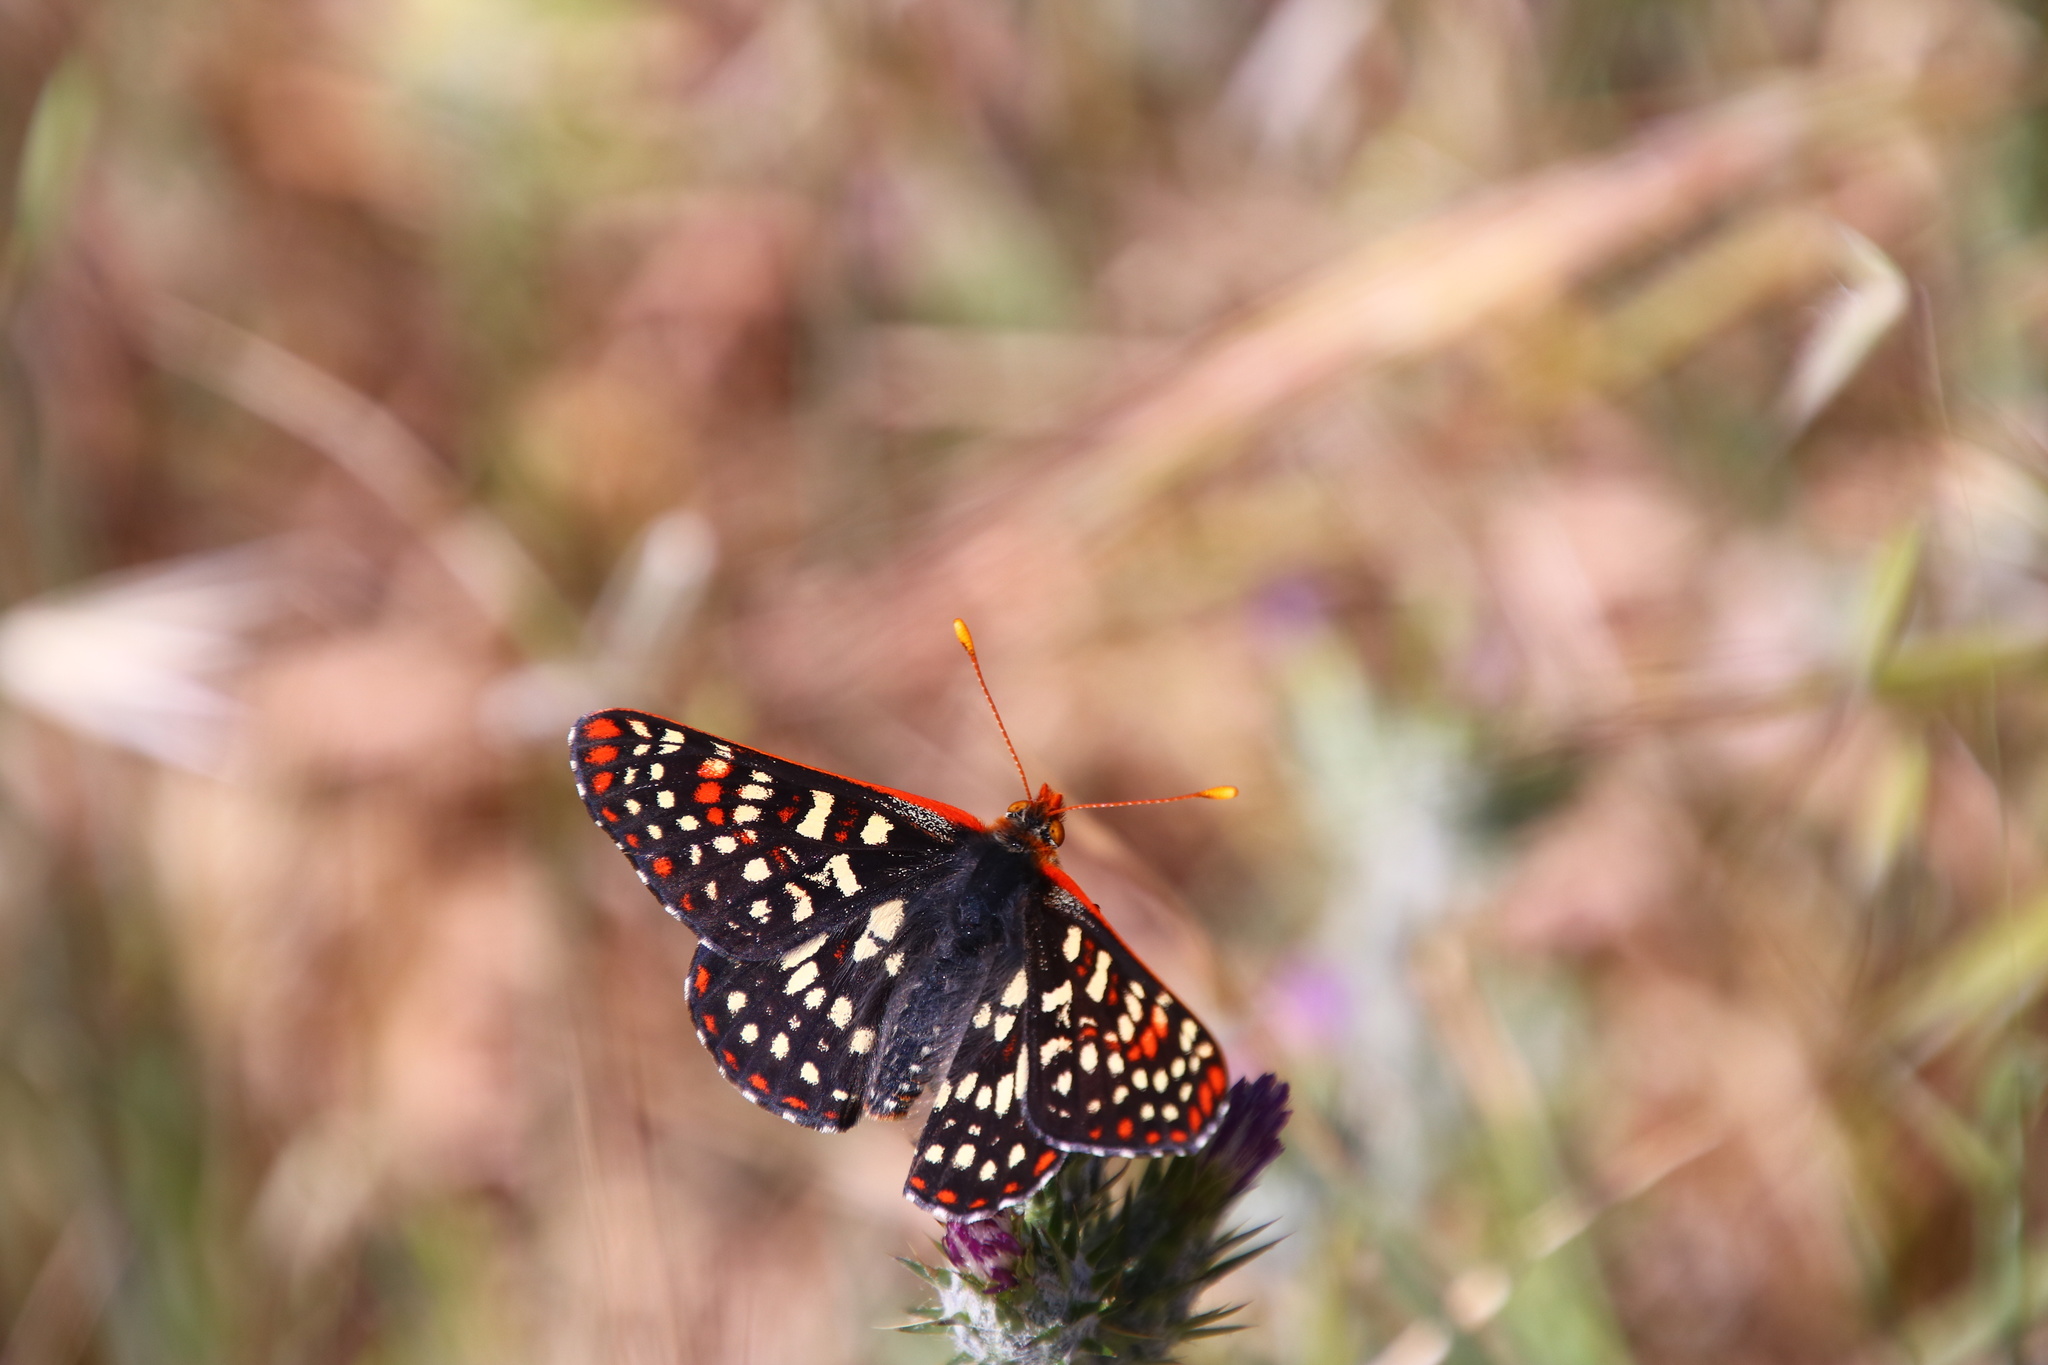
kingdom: Animalia
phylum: Arthropoda
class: Insecta
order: Lepidoptera
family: Nymphalidae
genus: Occidryas
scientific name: Occidryas chalcedona
